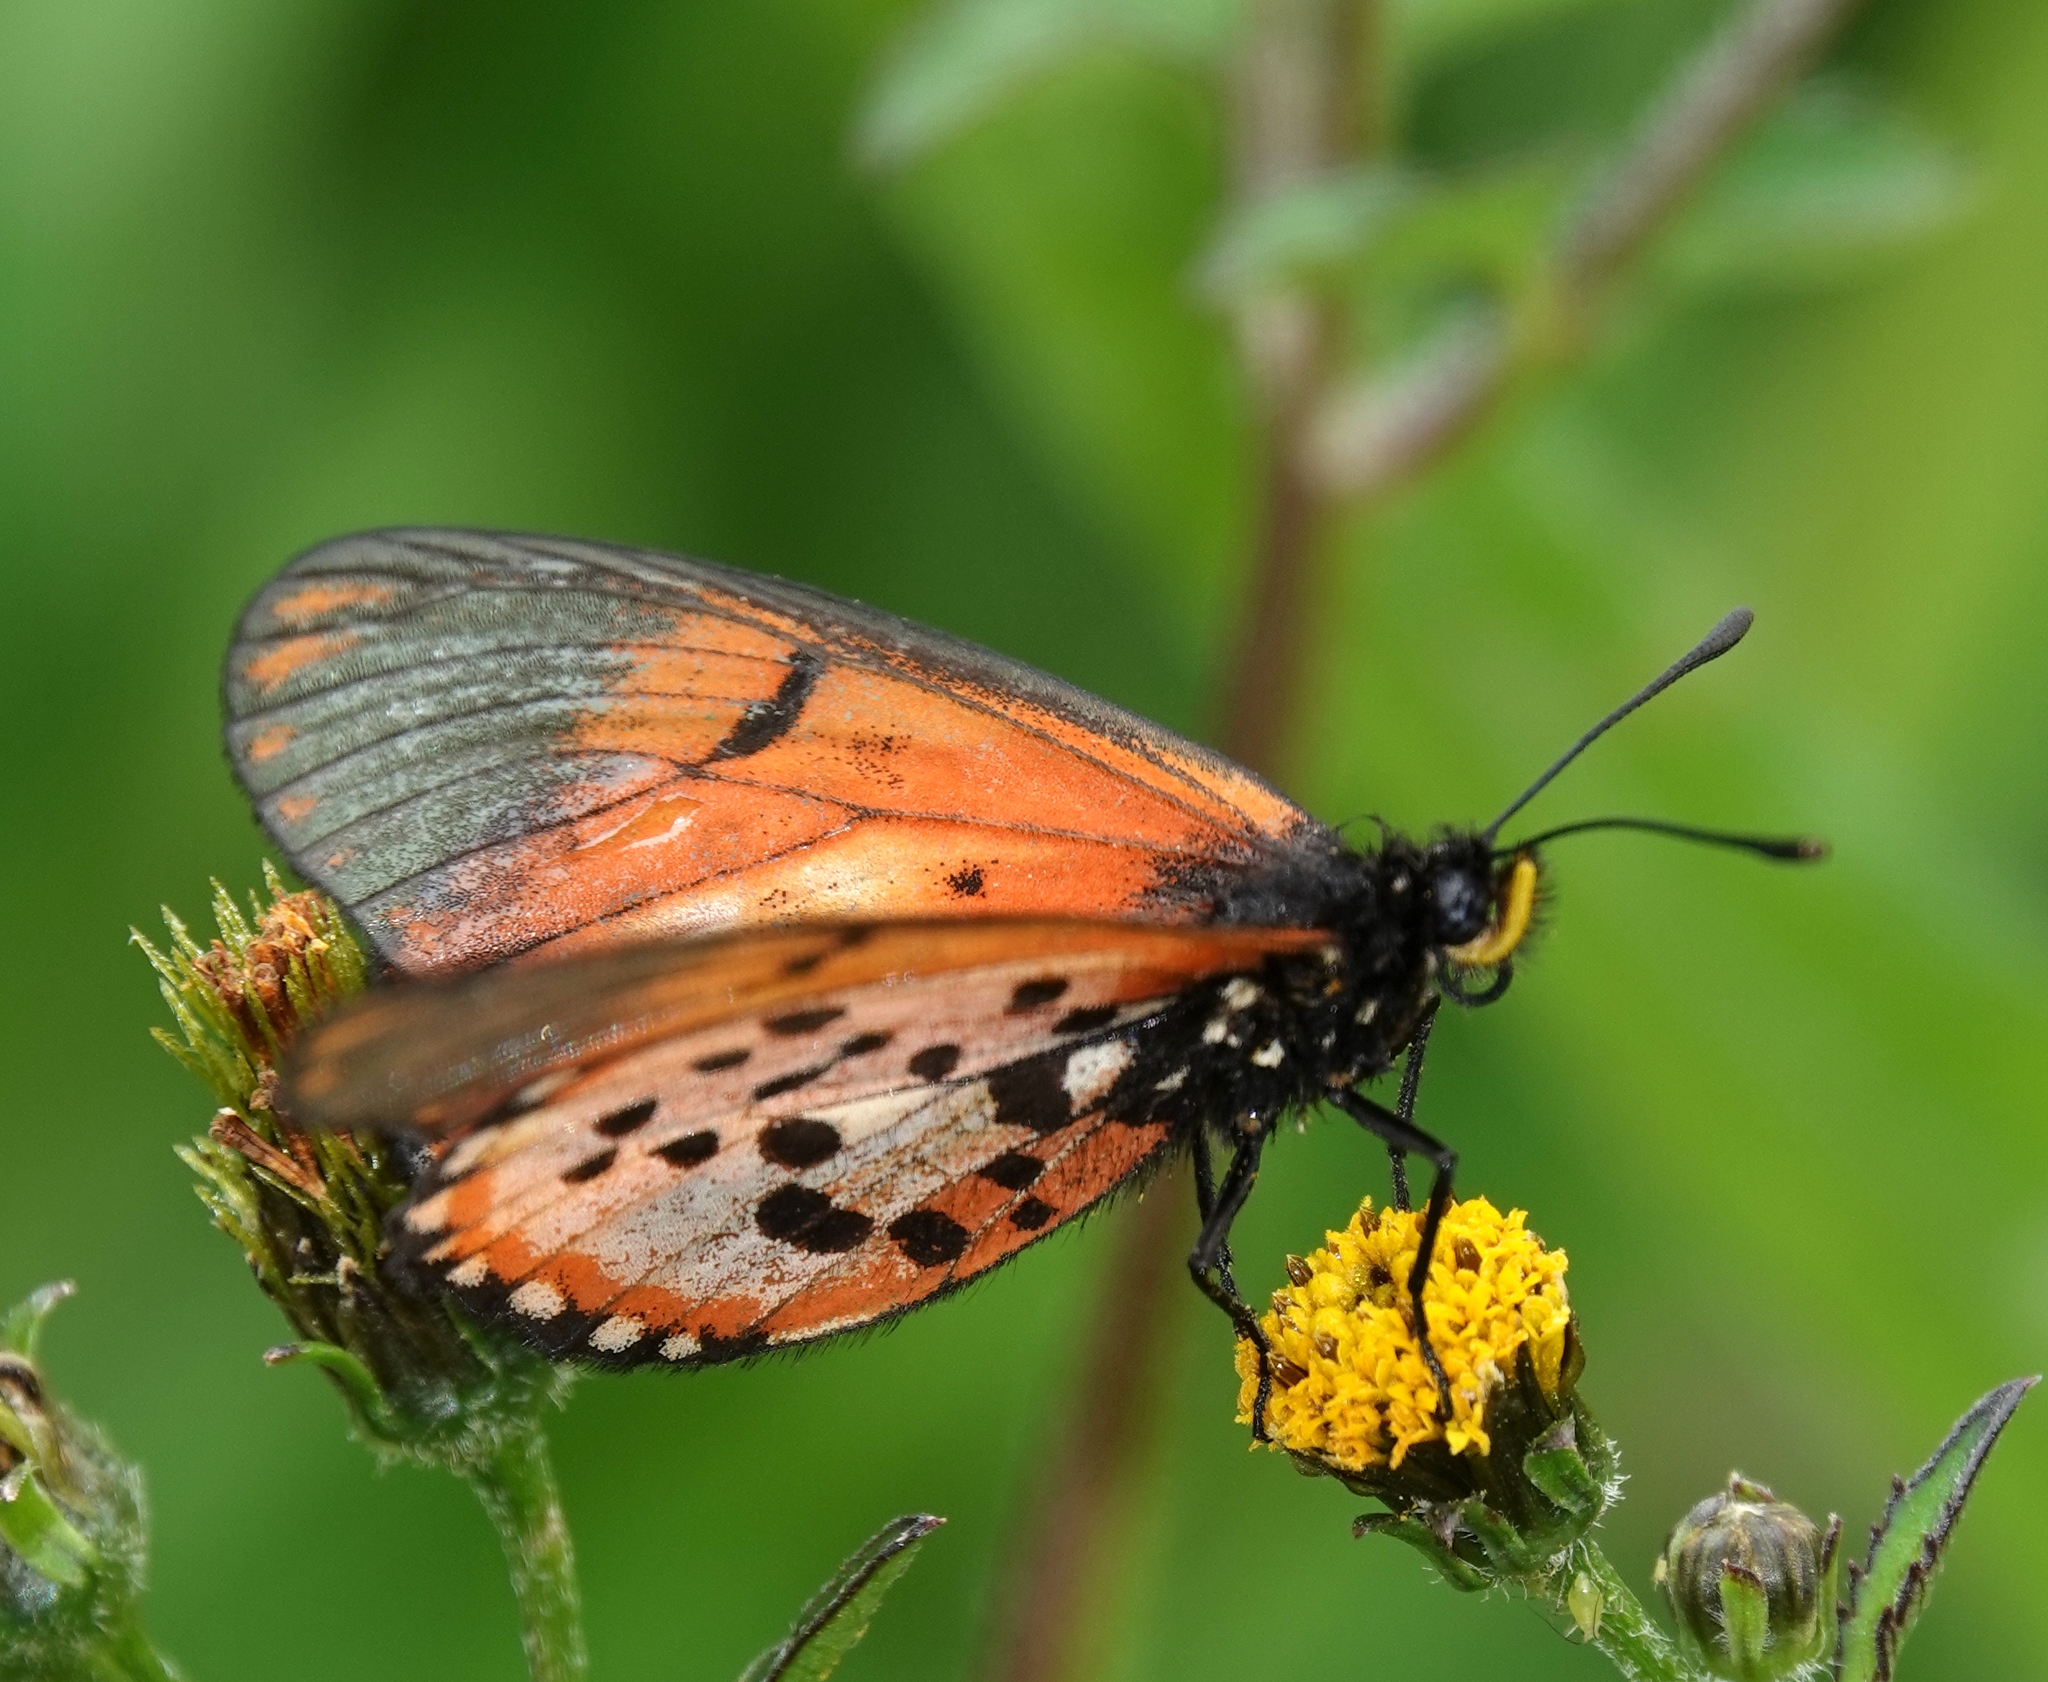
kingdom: Animalia
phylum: Arthropoda
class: Insecta
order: Lepidoptera
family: Nymphalidae
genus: Acraea
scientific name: Acraea horta
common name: Garden acraea
